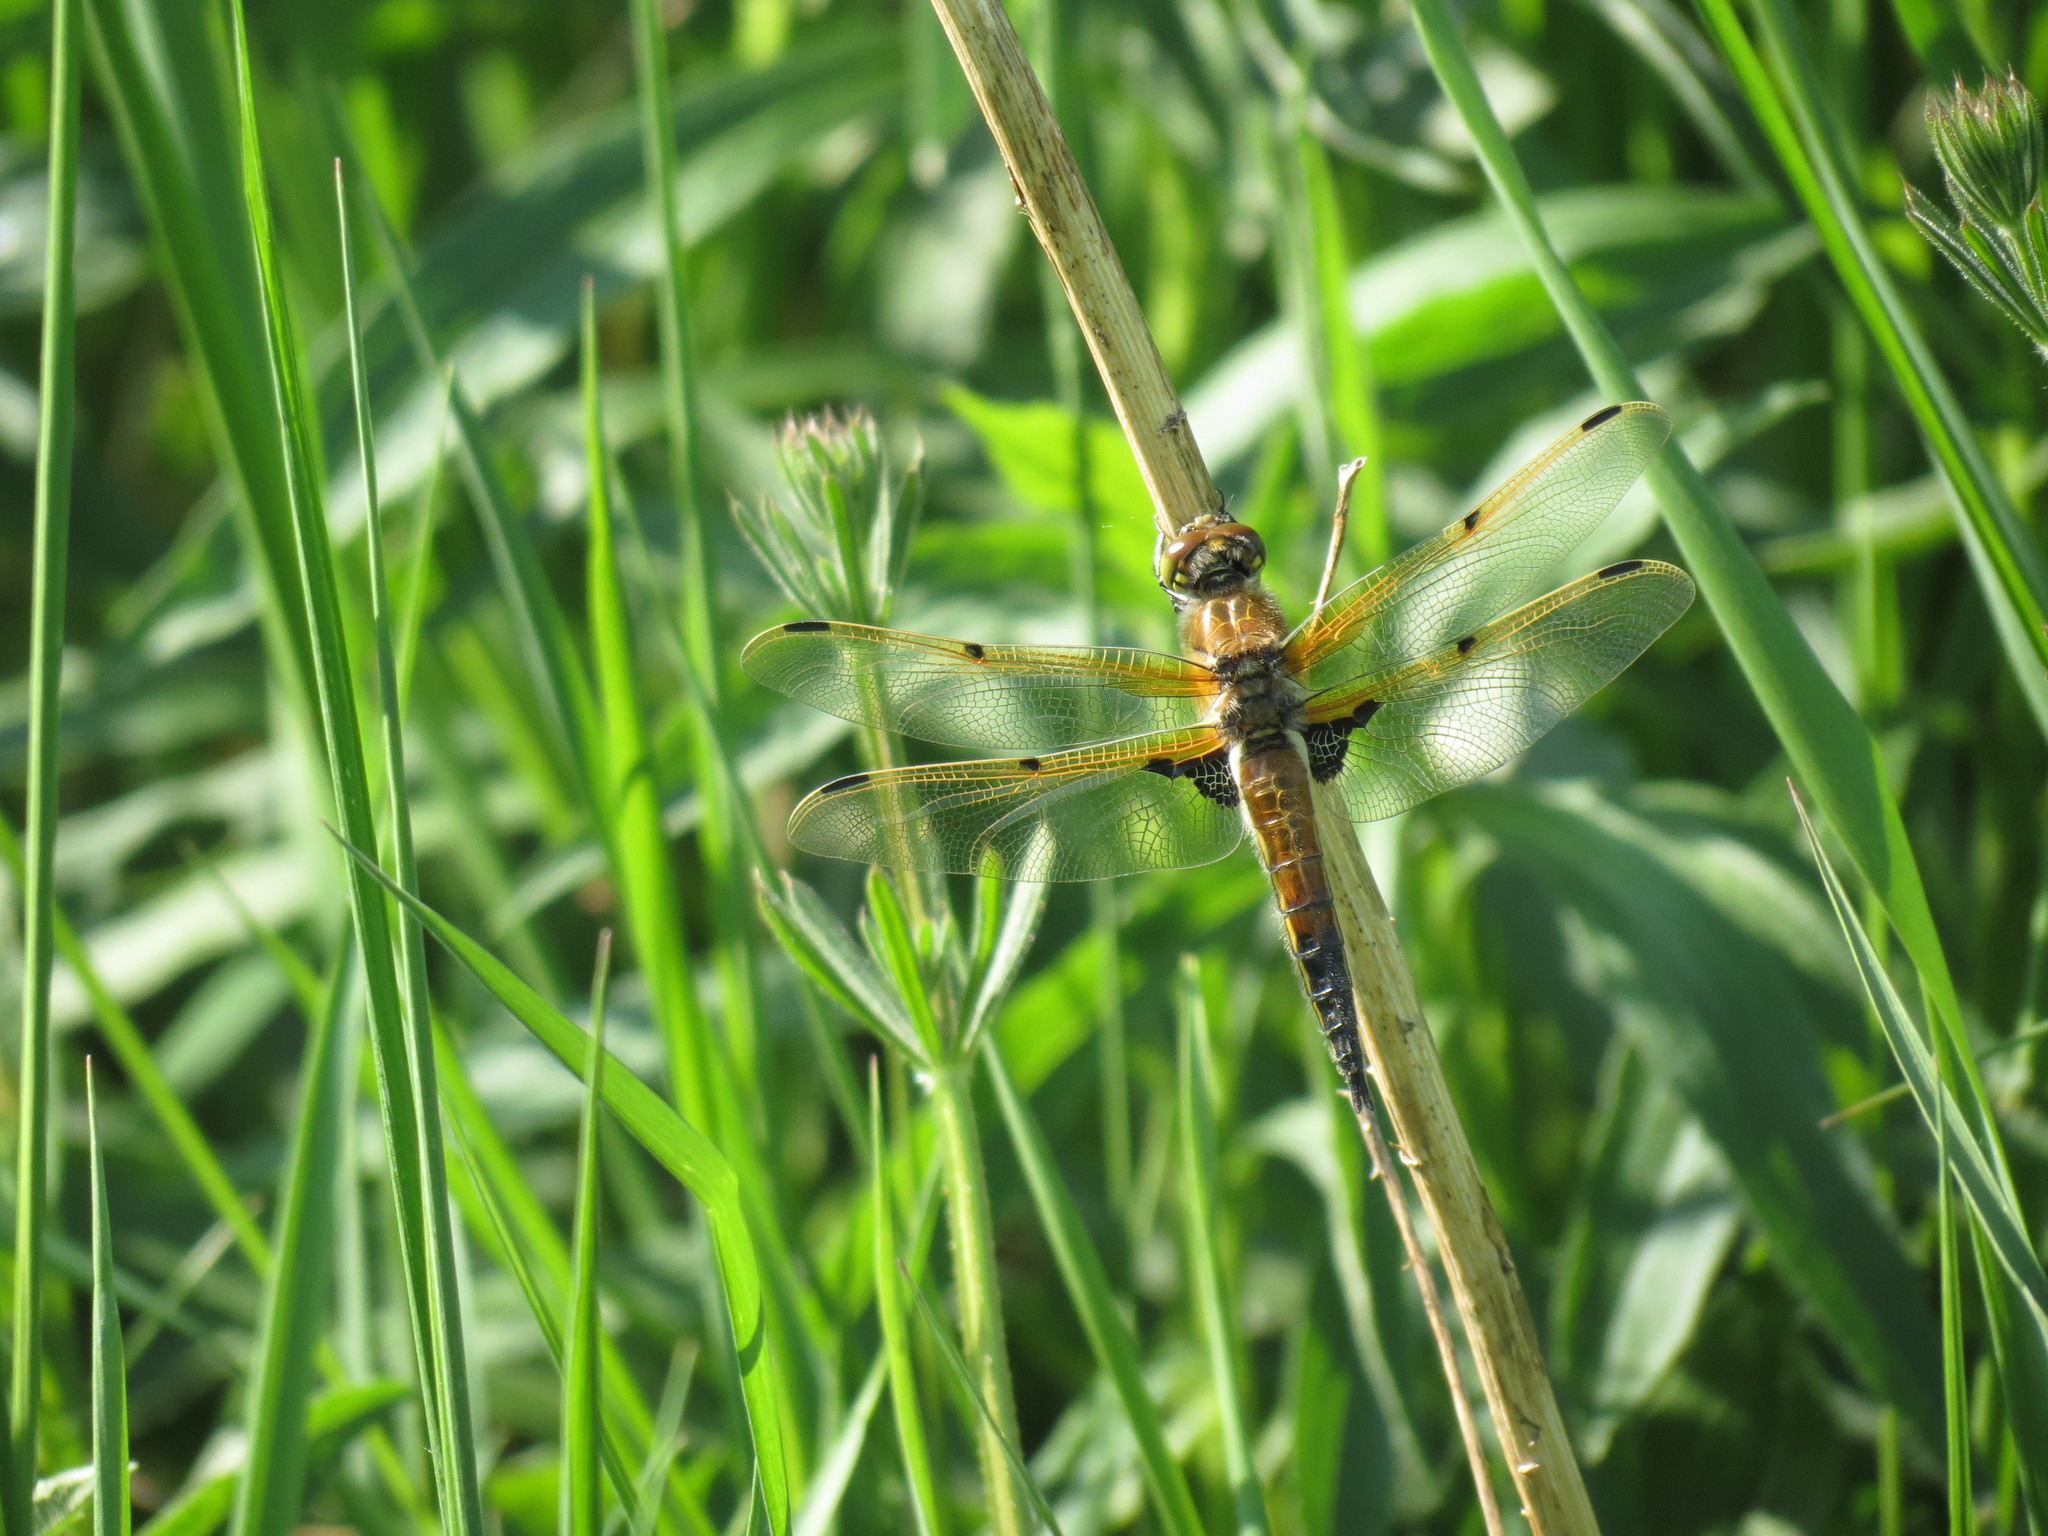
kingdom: Animalia
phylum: Arthropoda
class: Insecta
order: Odonata
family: Libellulidae
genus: Libellula
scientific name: Libellula quadrimaculata
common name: Four-spotted chaser
